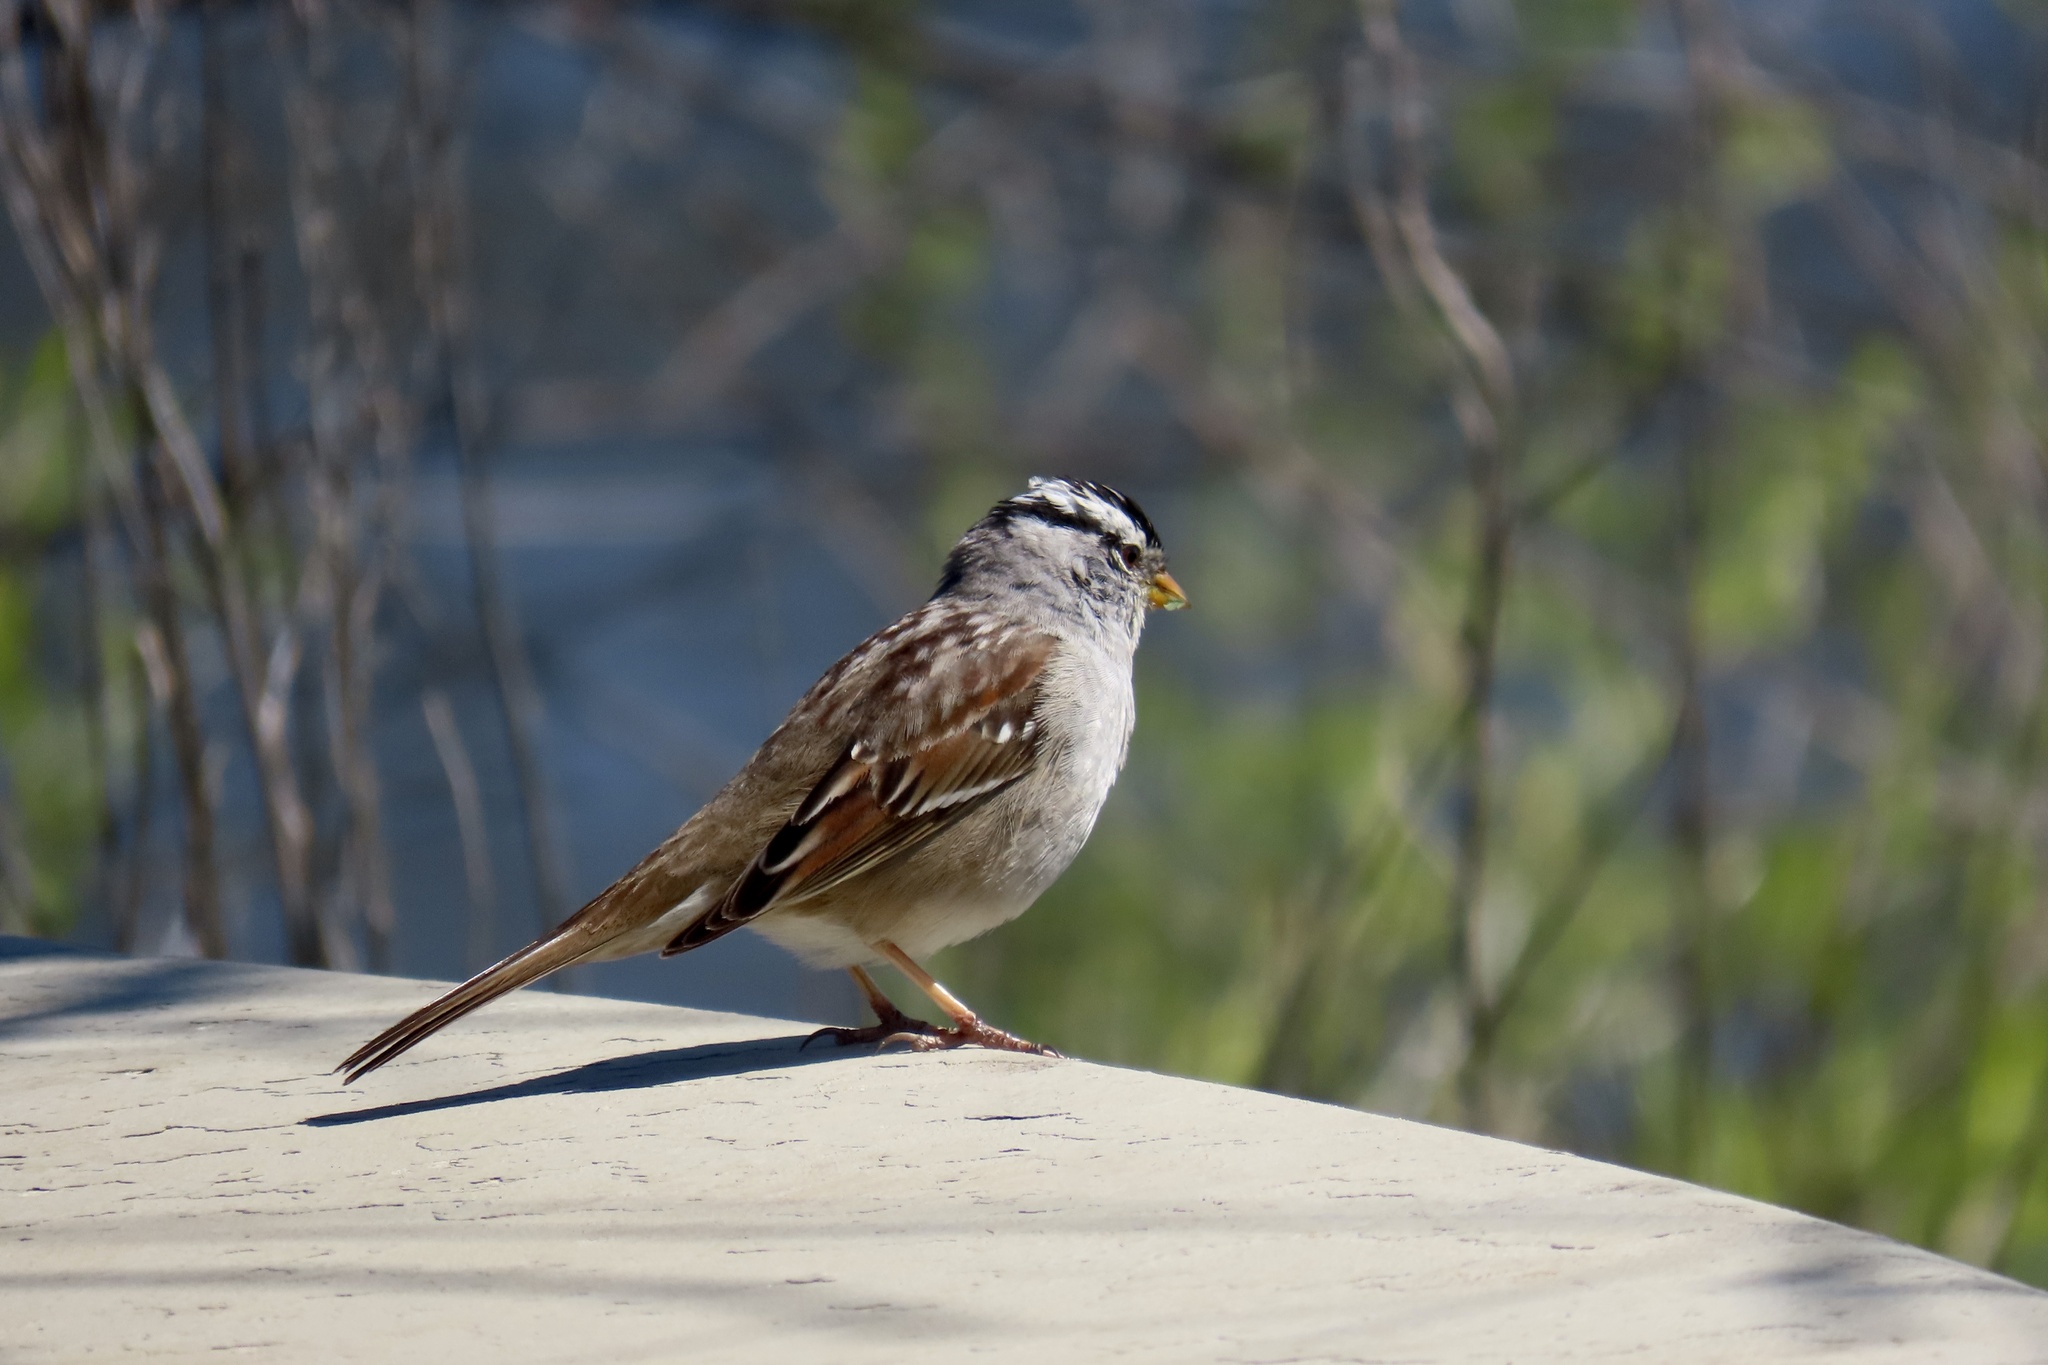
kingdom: Animalia
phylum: Chordata
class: Aves
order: Passeriformes
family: Passerellidae
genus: Zonotrichia
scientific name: Zonotrichia leucophrys
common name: White-crowned sparrow
